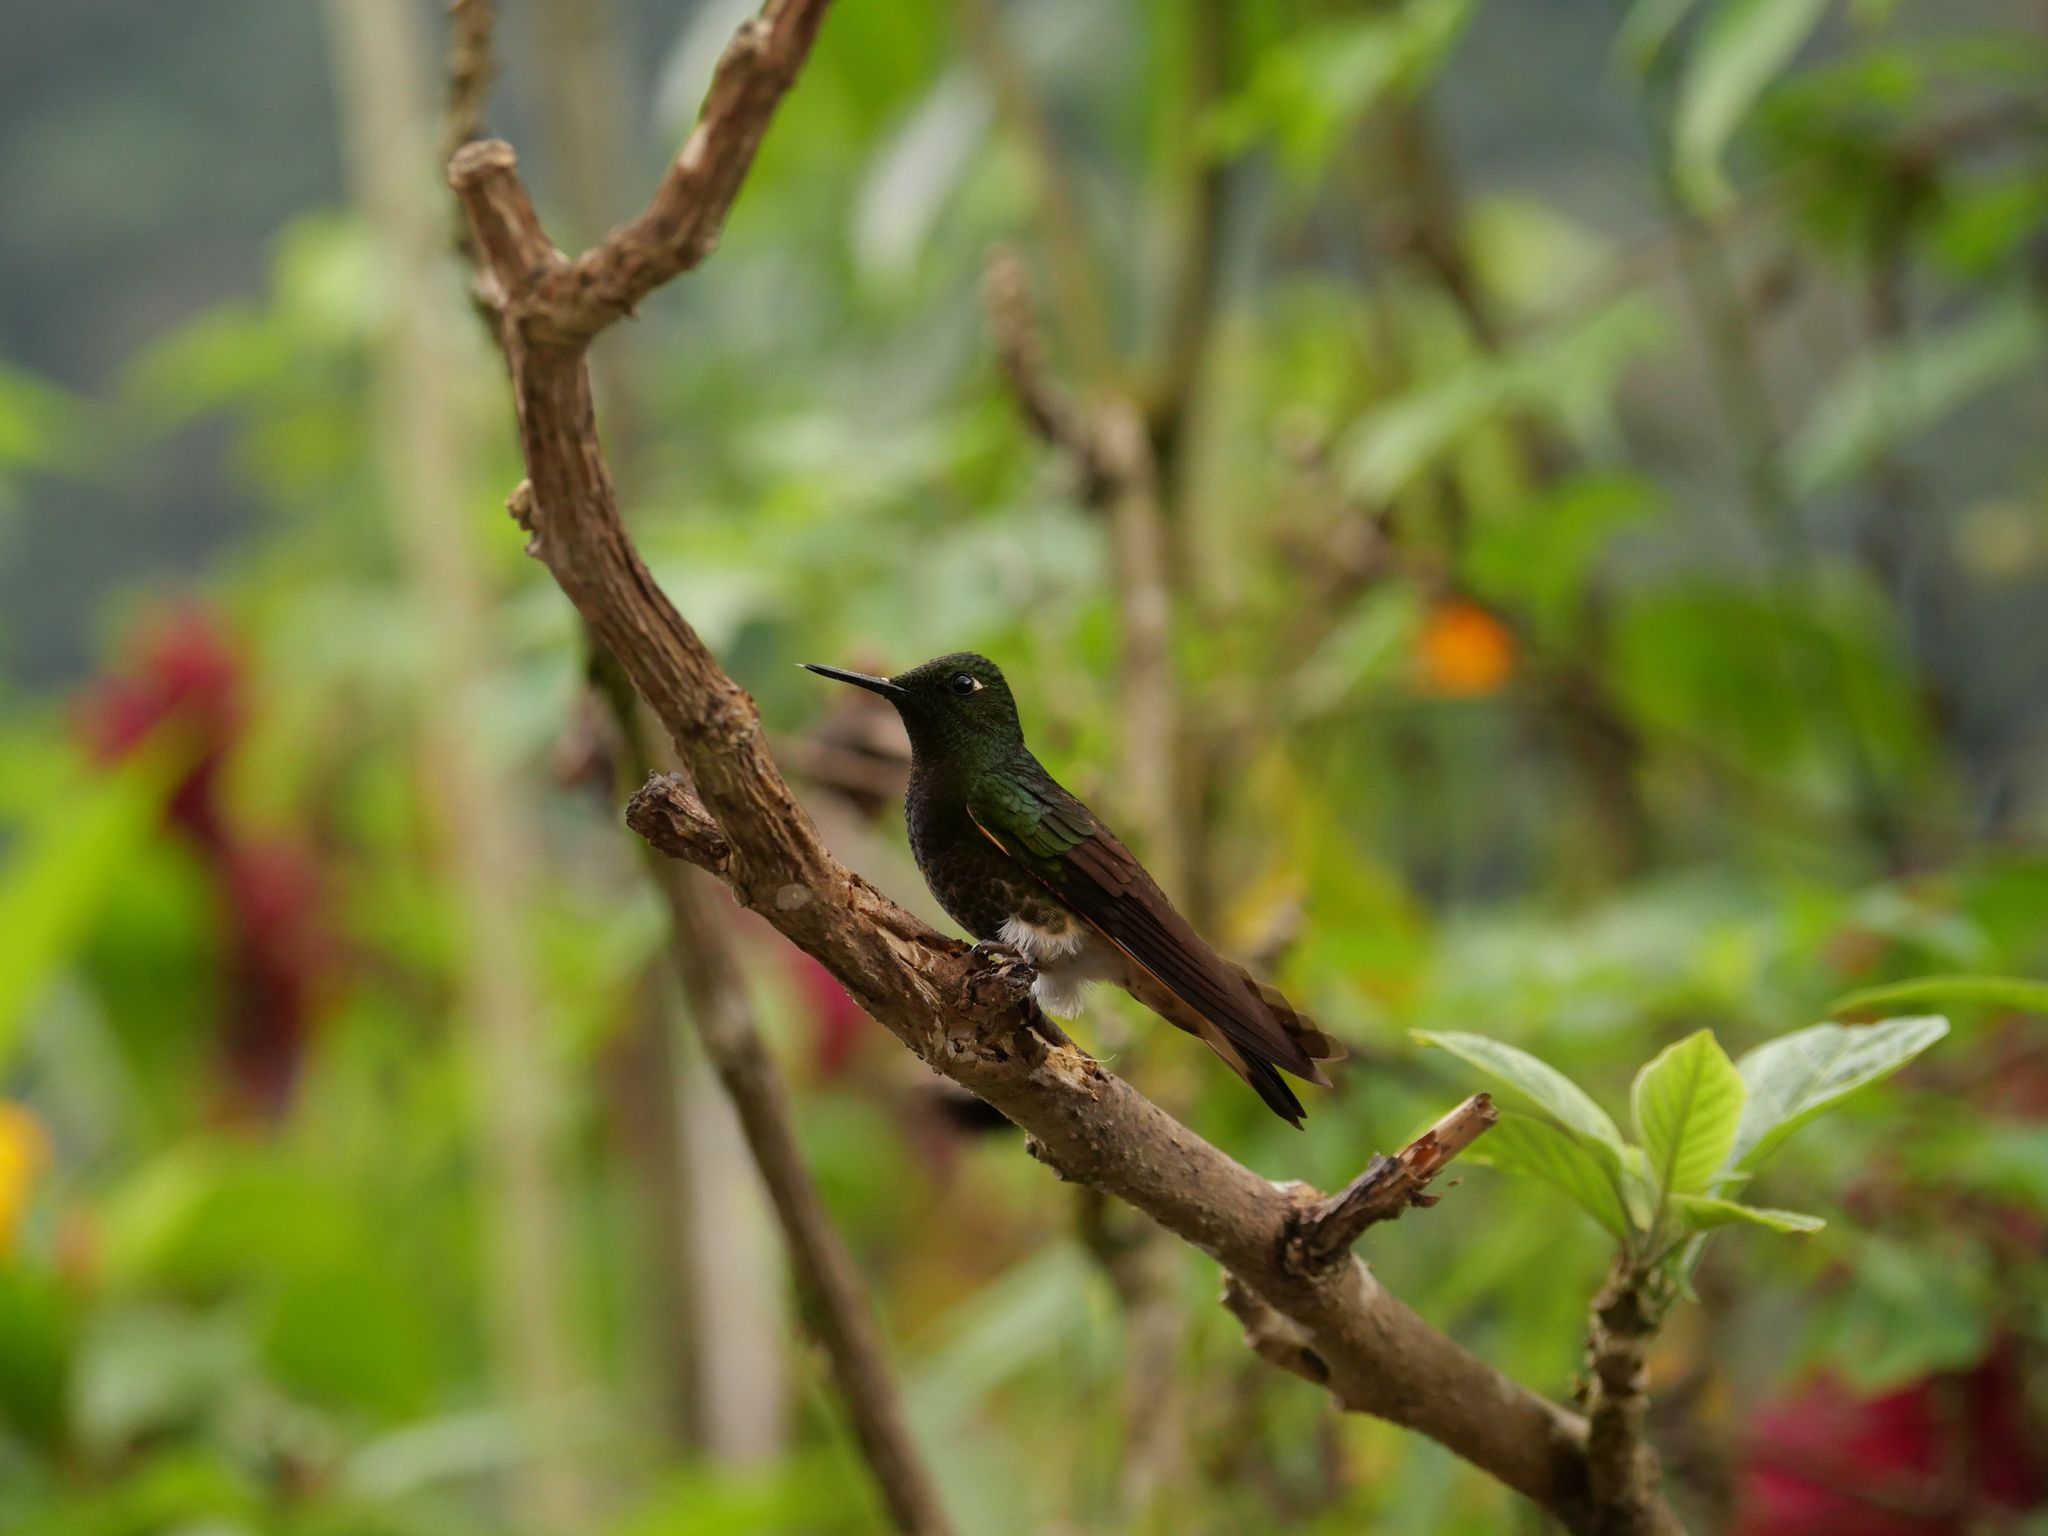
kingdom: Animalia
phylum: Chordata
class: Aves
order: Apodiformes
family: Trochilidae
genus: Boissonneaua
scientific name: Boissonneaua flavescens
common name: Buff-tailed coronet
